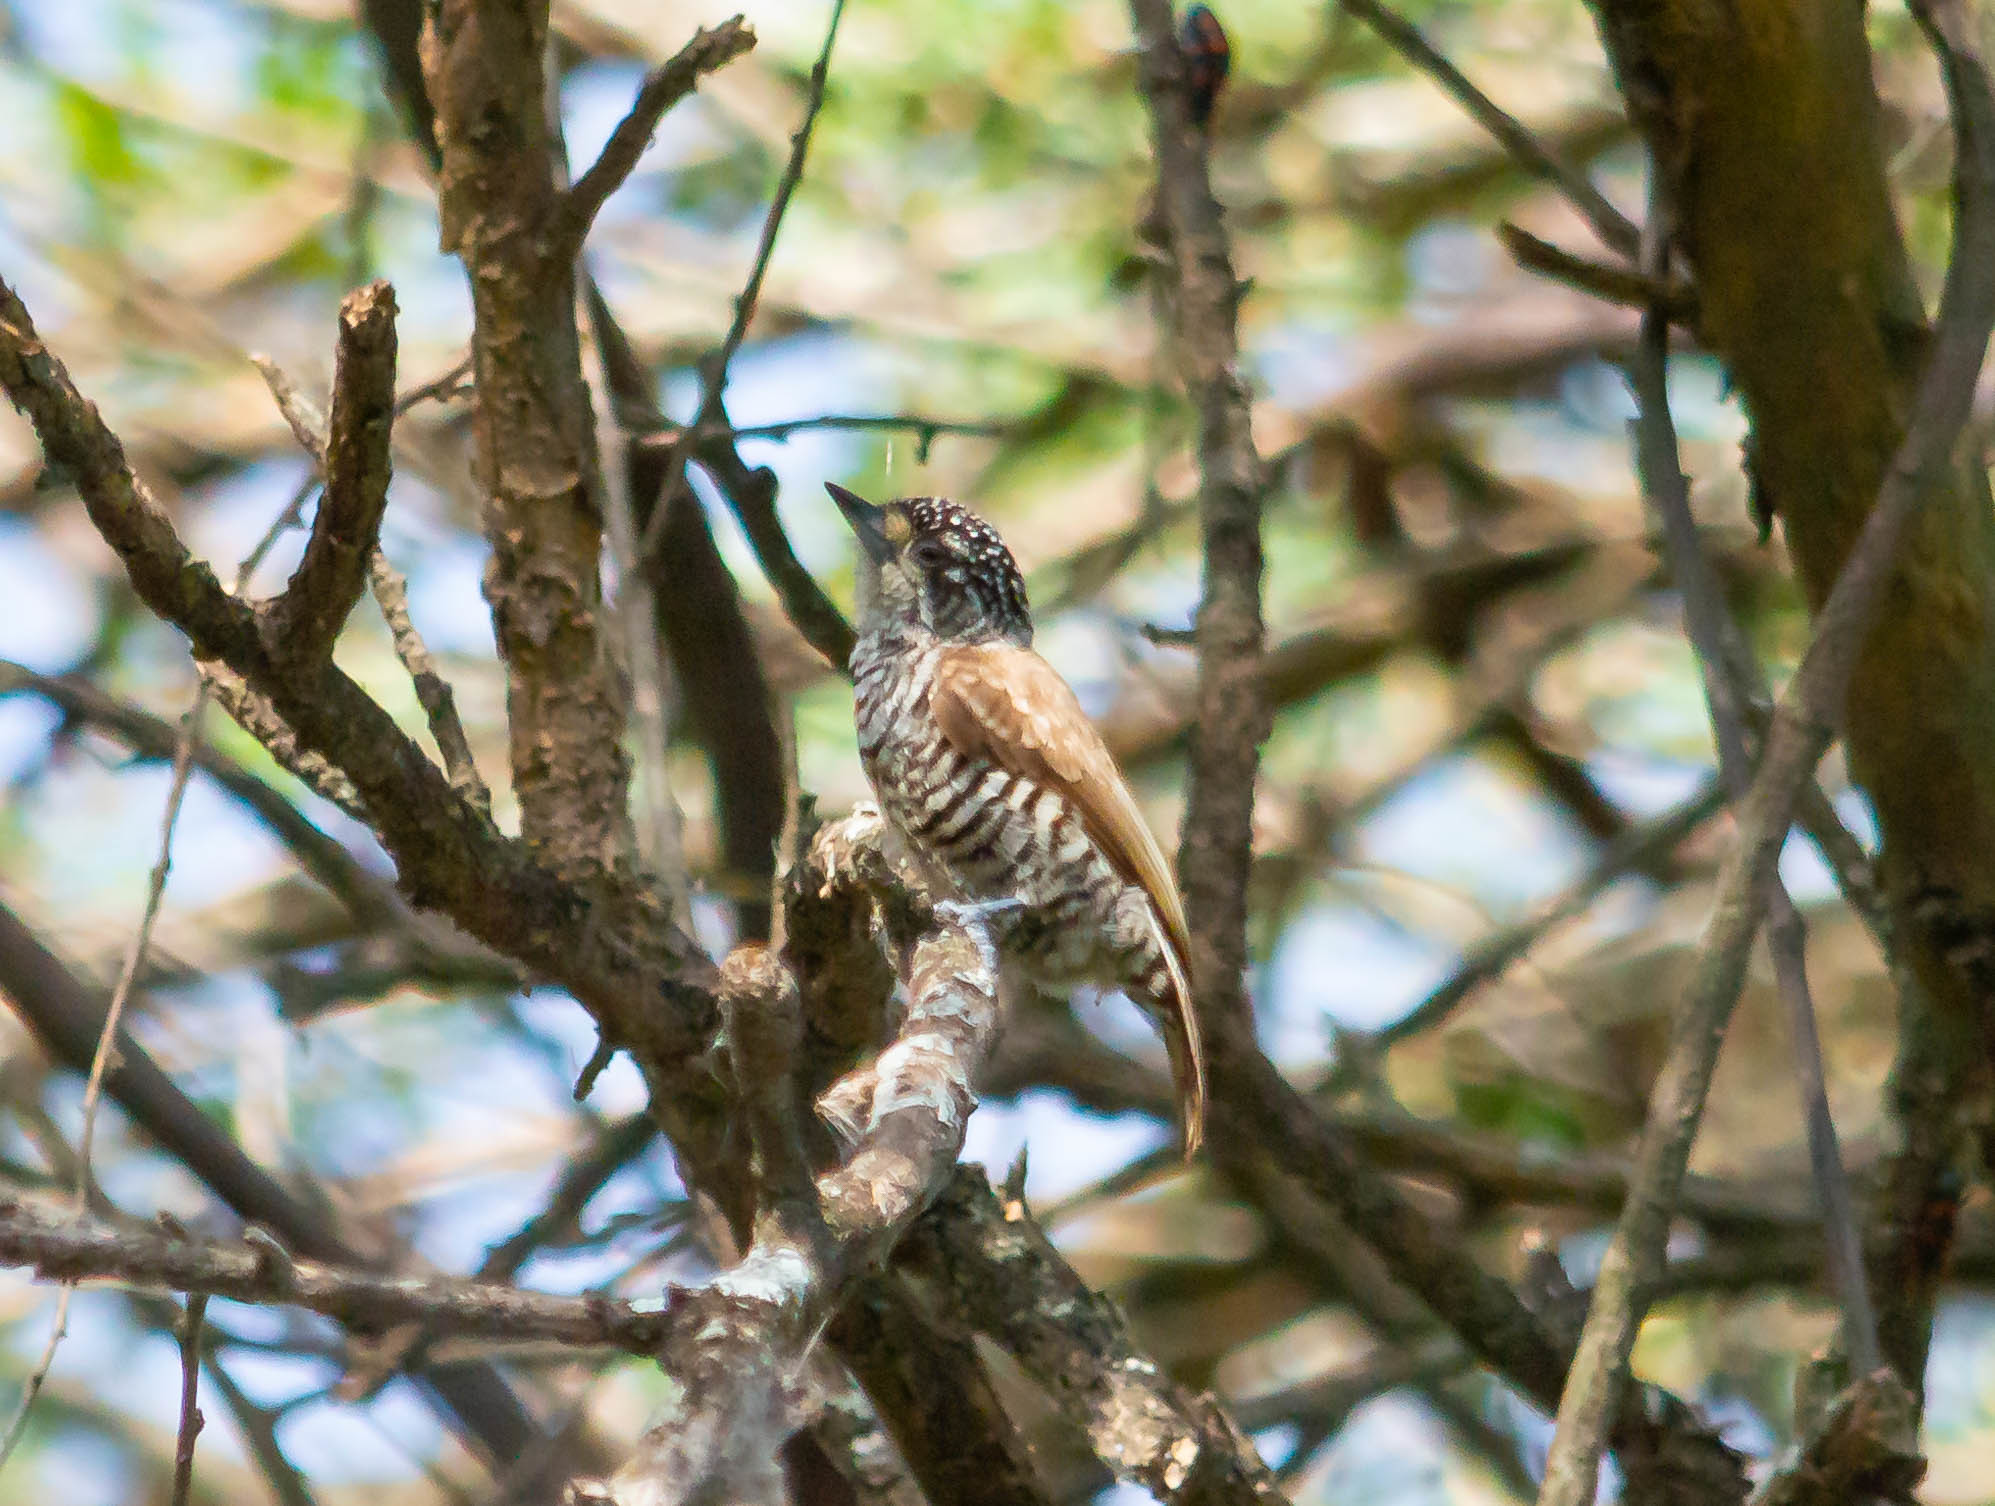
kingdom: Animalia
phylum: Chordata
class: Aves
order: Piciformes
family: Picidae
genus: Picumnus
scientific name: Picumnus cirratus
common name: White-barred piculet
